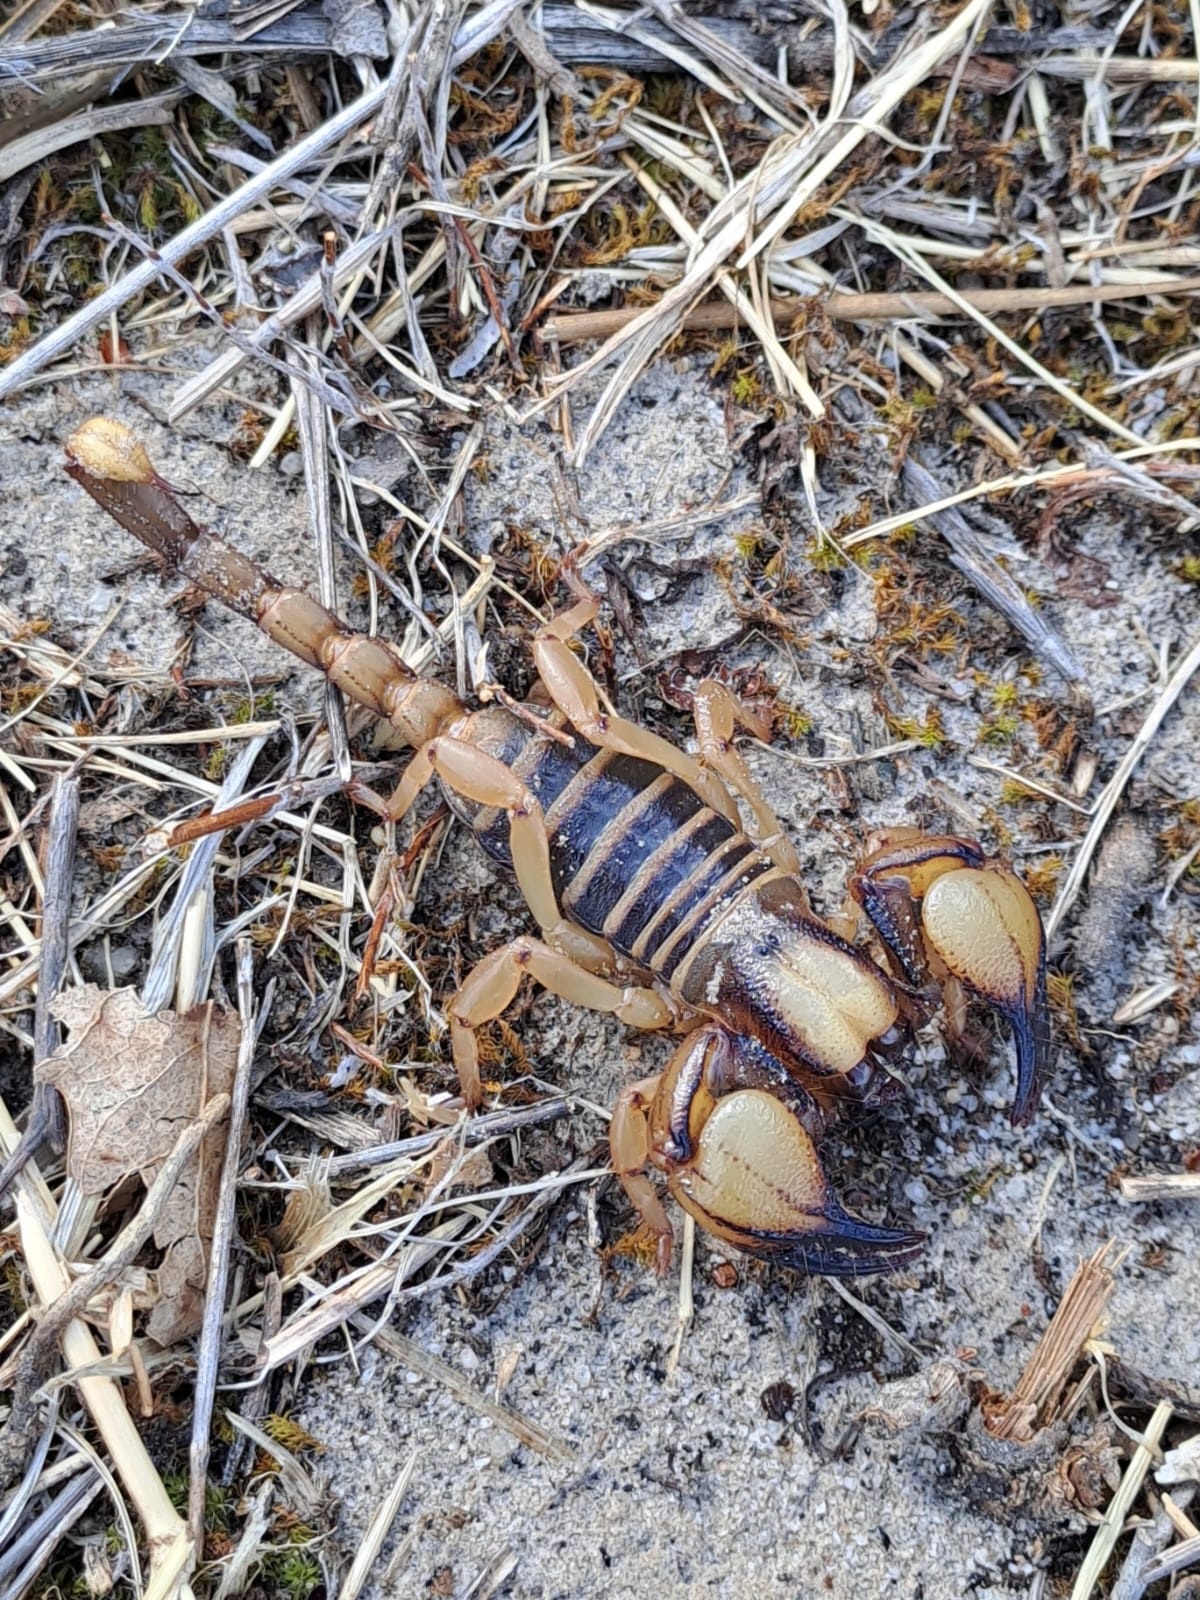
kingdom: Animalia
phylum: Arthropoda
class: Arachnida
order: Scorpiones
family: Scorpionidae
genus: Opistophthalmus
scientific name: Opistophthalmus capensis
